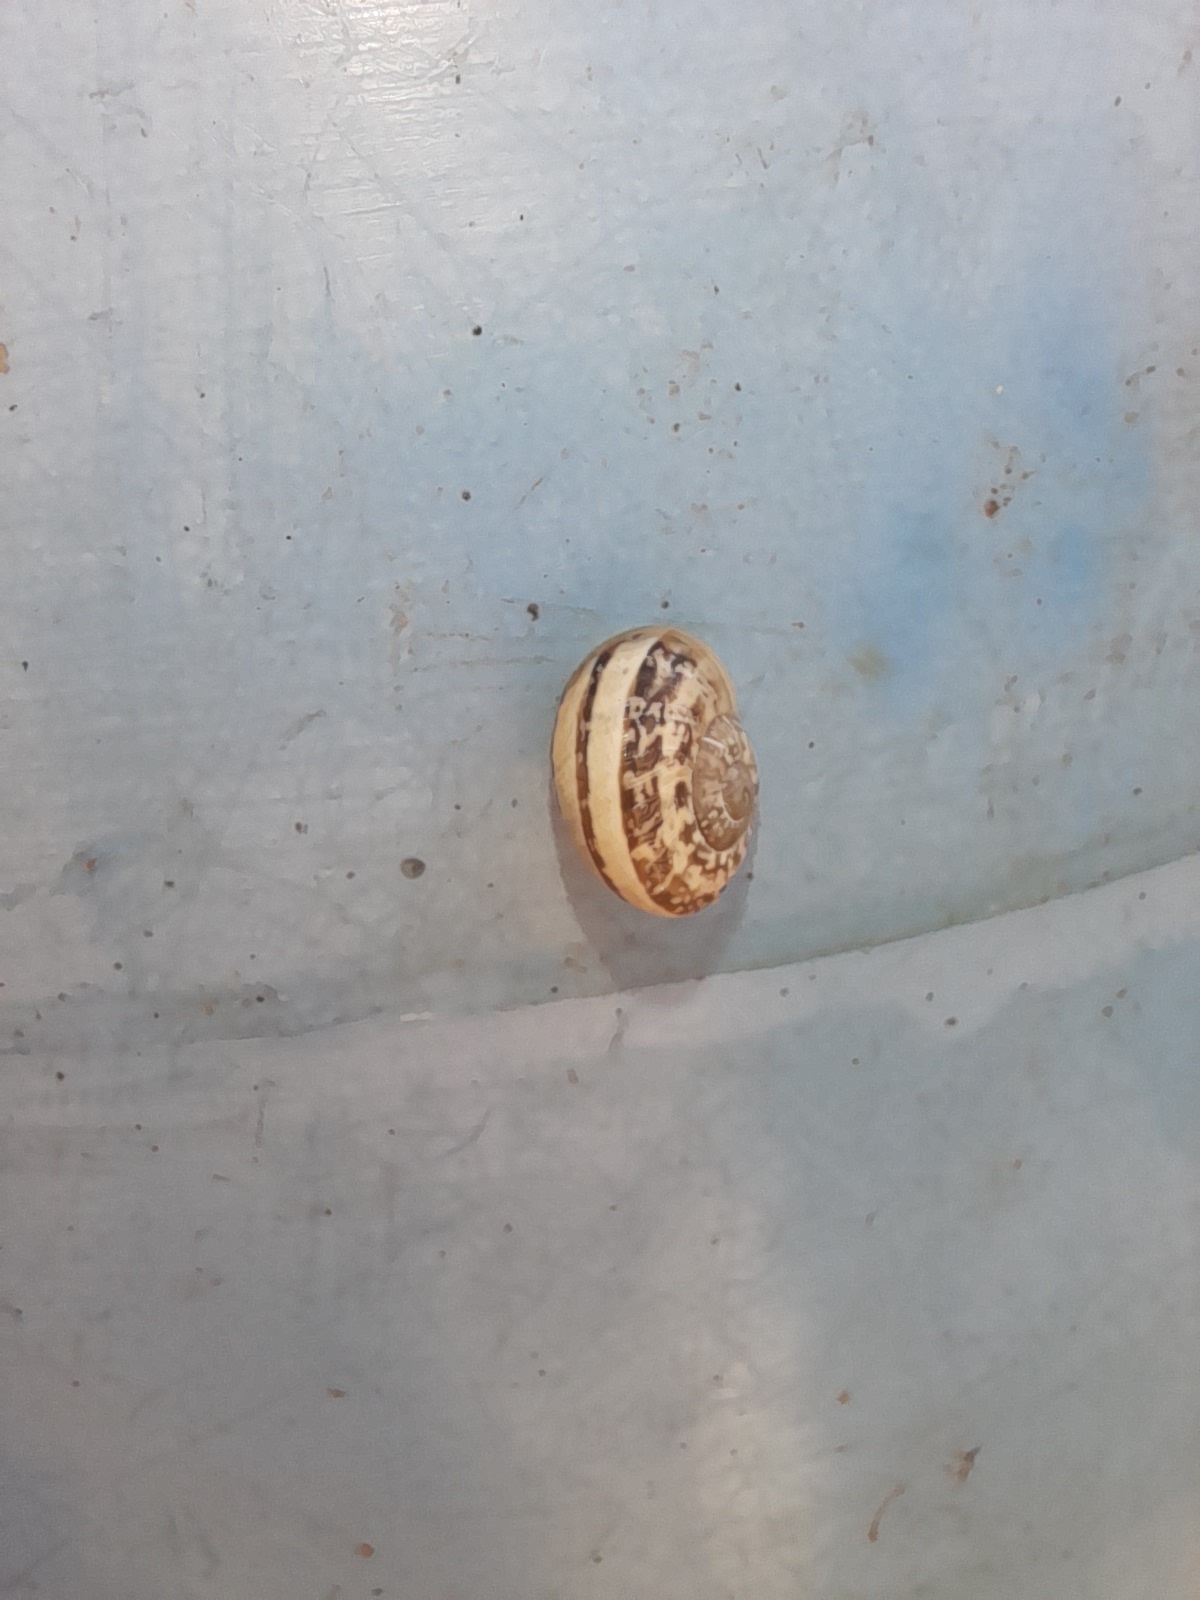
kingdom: Animalia
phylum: Mollusca
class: Gastropoda
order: Stylommatophora
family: Helicidae
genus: Eobania
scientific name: Eobania vermiculata
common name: Chocolateband snail
